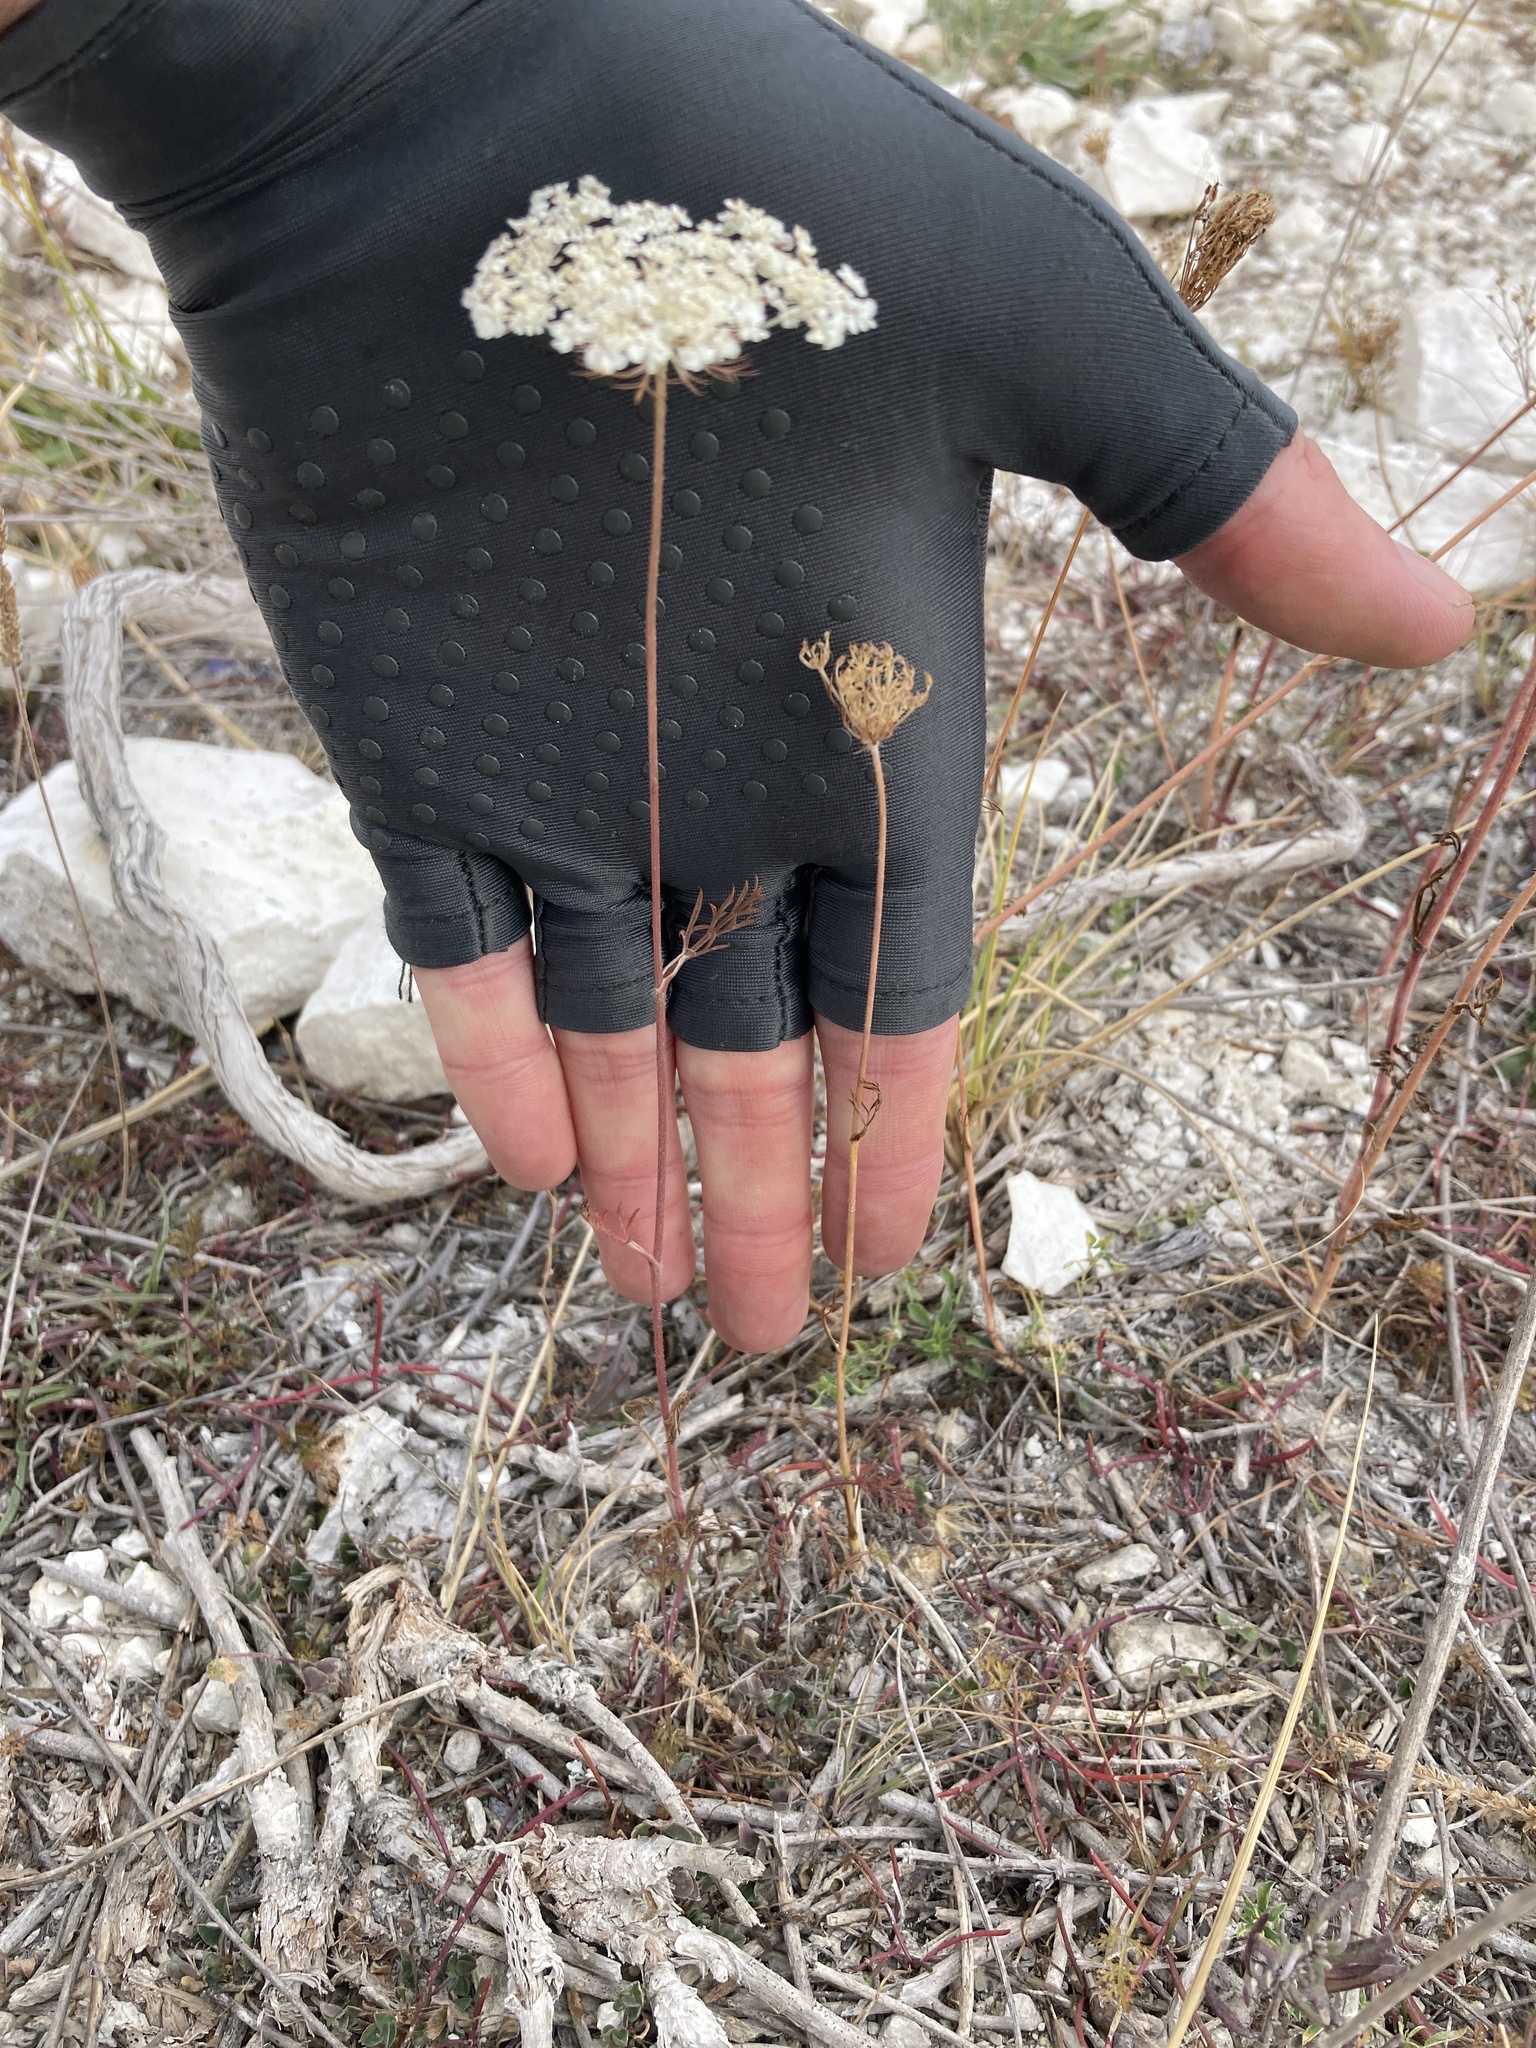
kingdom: Plantae
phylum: Tracheophyta
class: Magnoliopsida
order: Apiales
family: Apiaceae
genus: Pimpinella
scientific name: Pimpinella tragium
